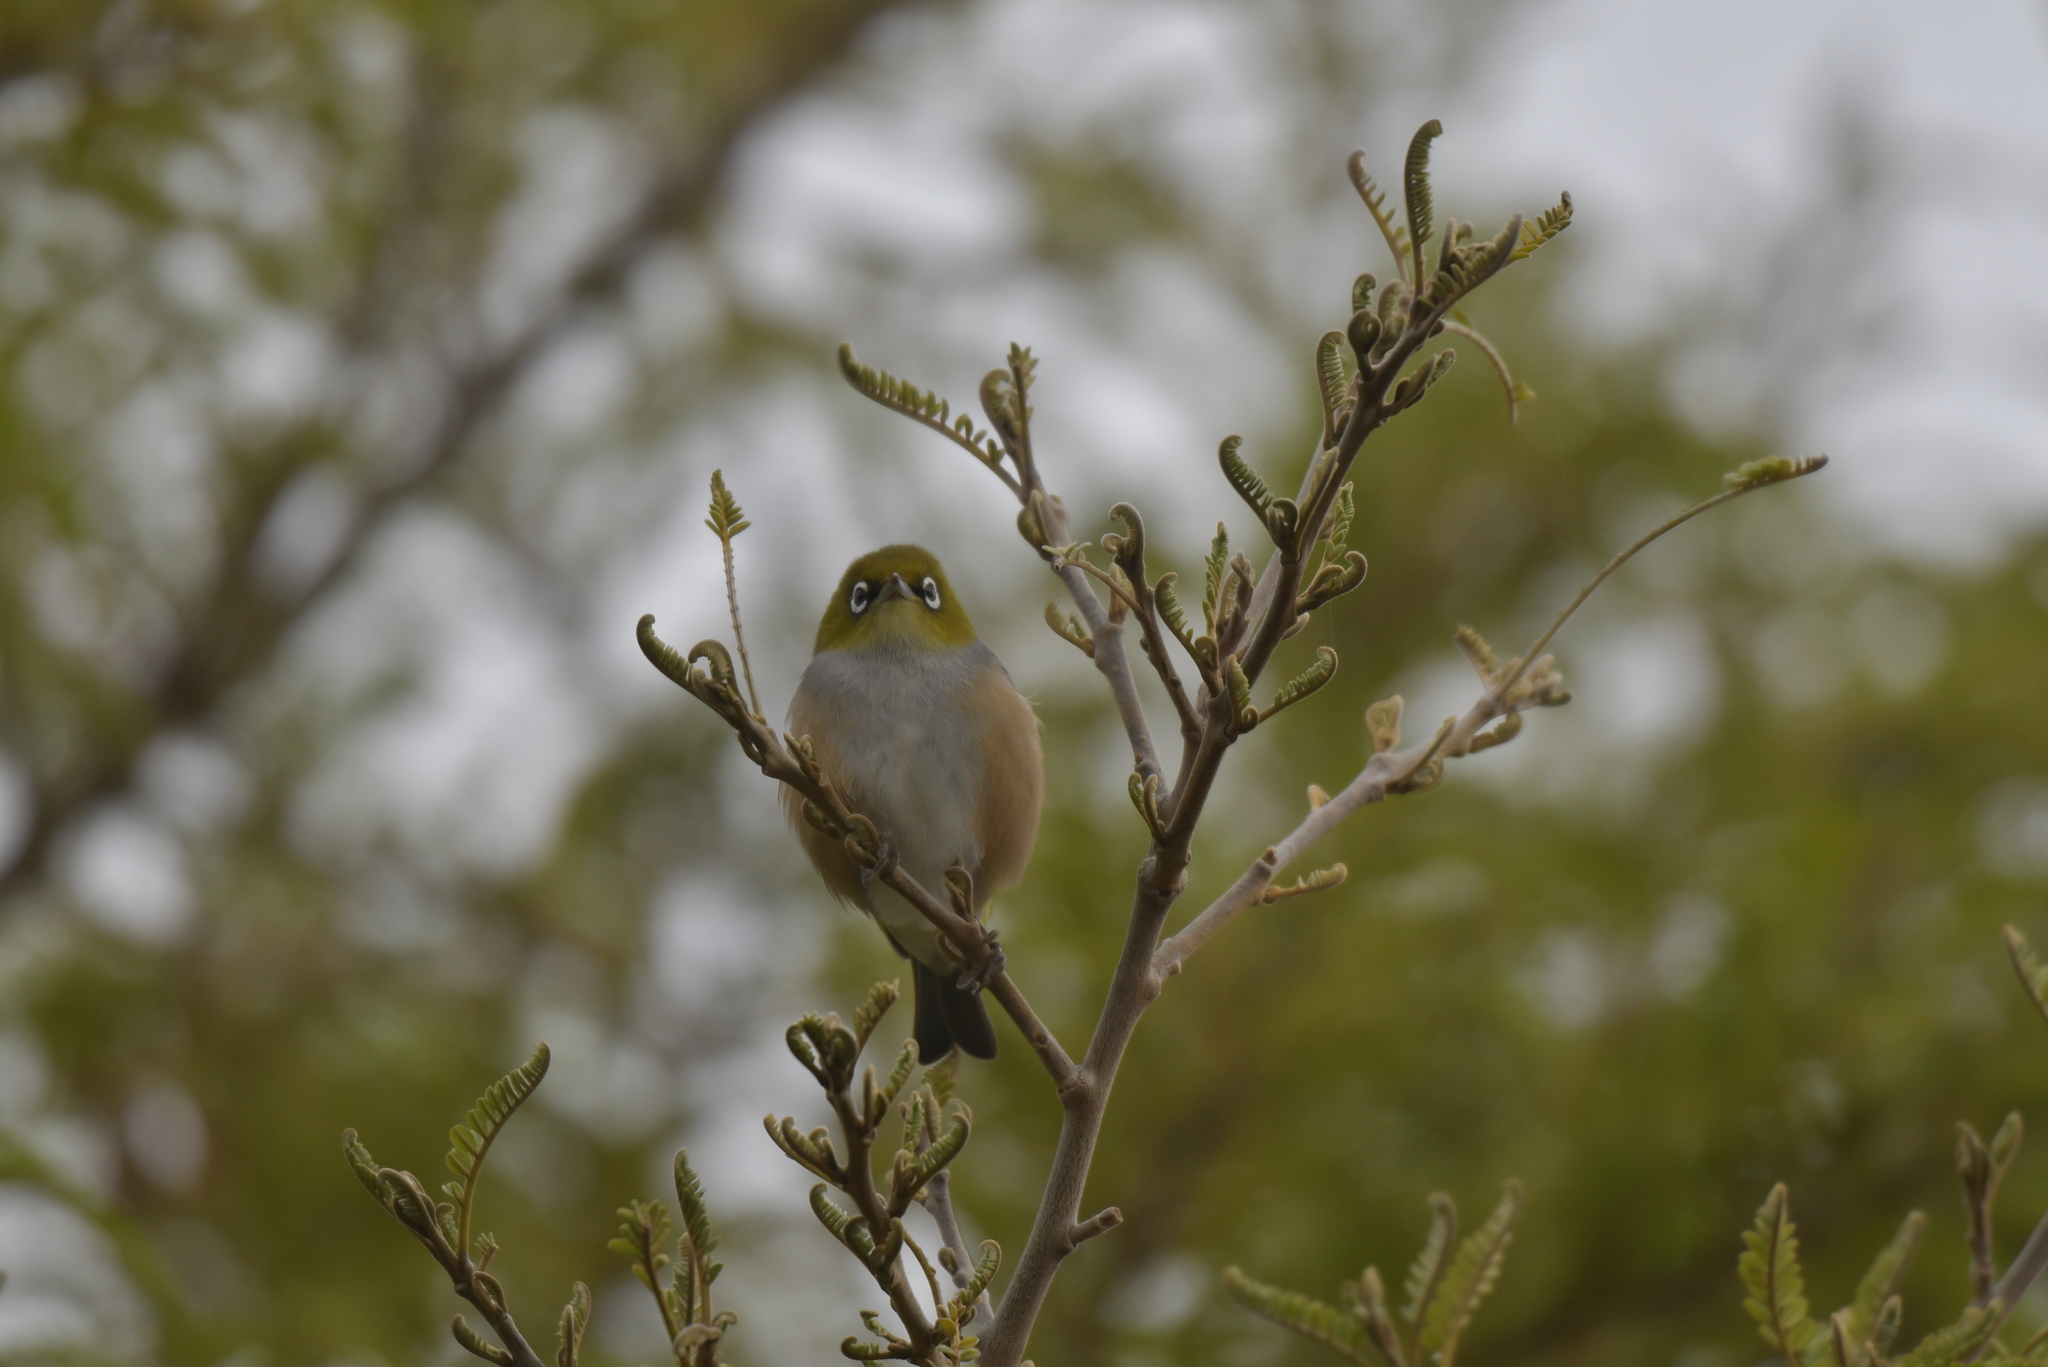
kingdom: Animalia
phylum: Chordata
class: Aves
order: Passeriformes
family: Zosteropidae
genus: Zosterops
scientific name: Zosterops lateralis
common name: Silvereye
